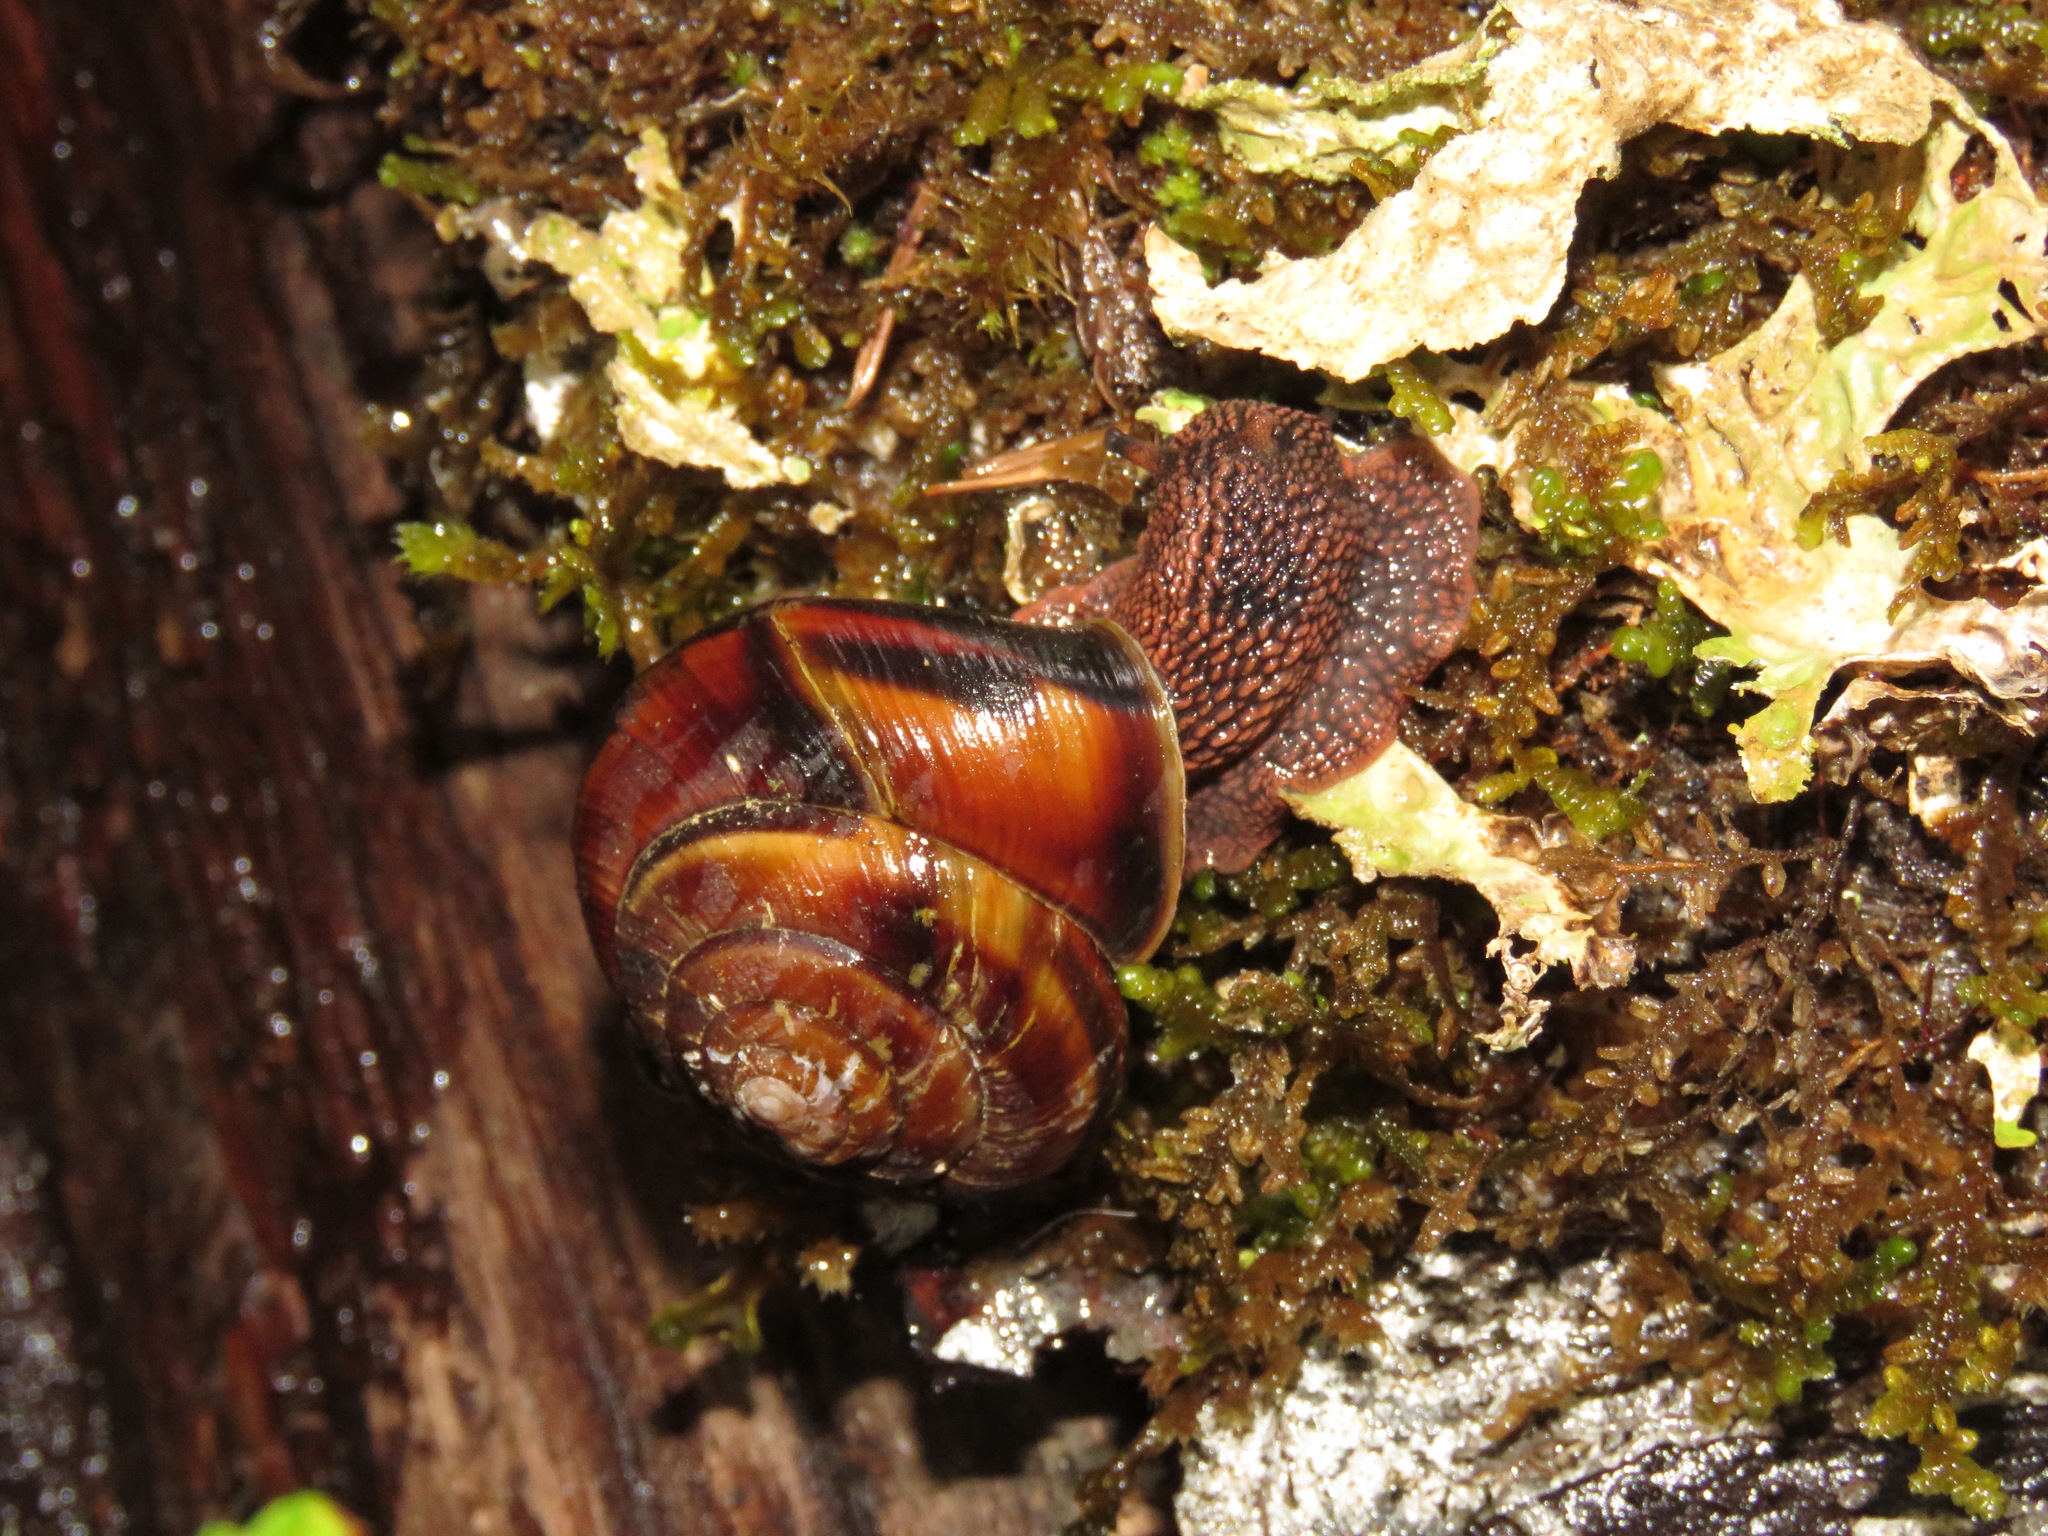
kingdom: Animalia
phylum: Mollusca
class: Gastropoda
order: Stylommatophora
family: Xanthonychidae
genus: Monadenia
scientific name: Monadenia fidelis
